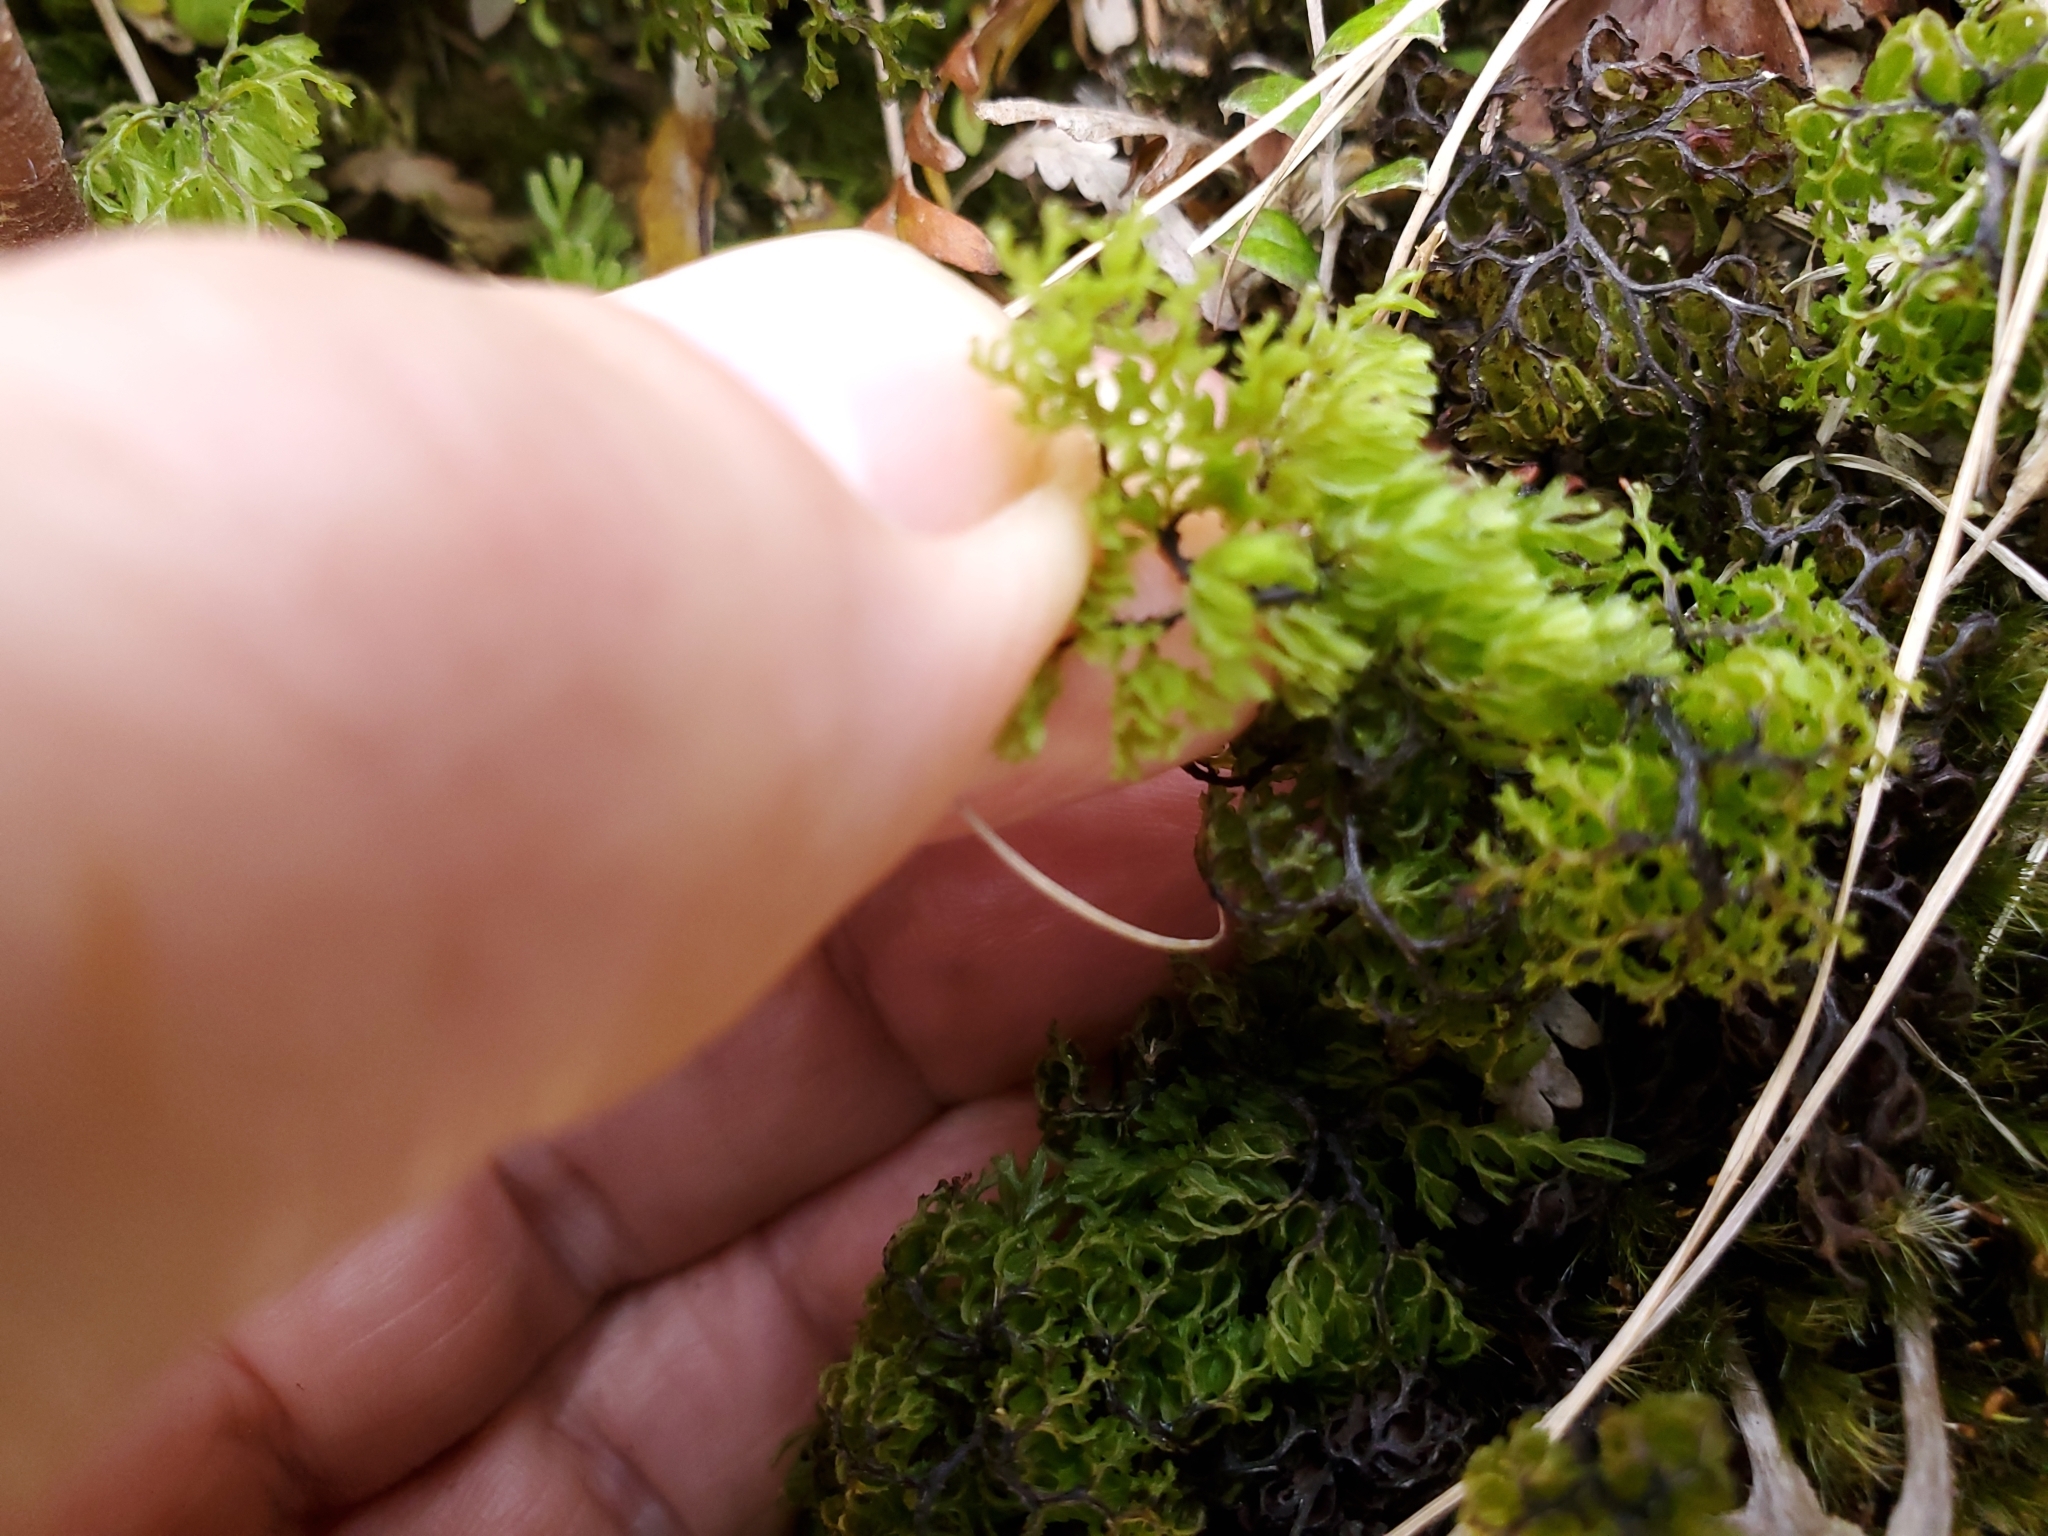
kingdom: Plantae
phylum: Tracheophyta
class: Polypodiopsida
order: Hymenophyllales
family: Hymenophyllaceae
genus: Hymenophyllum
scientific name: Hymenophyllum multifidum
